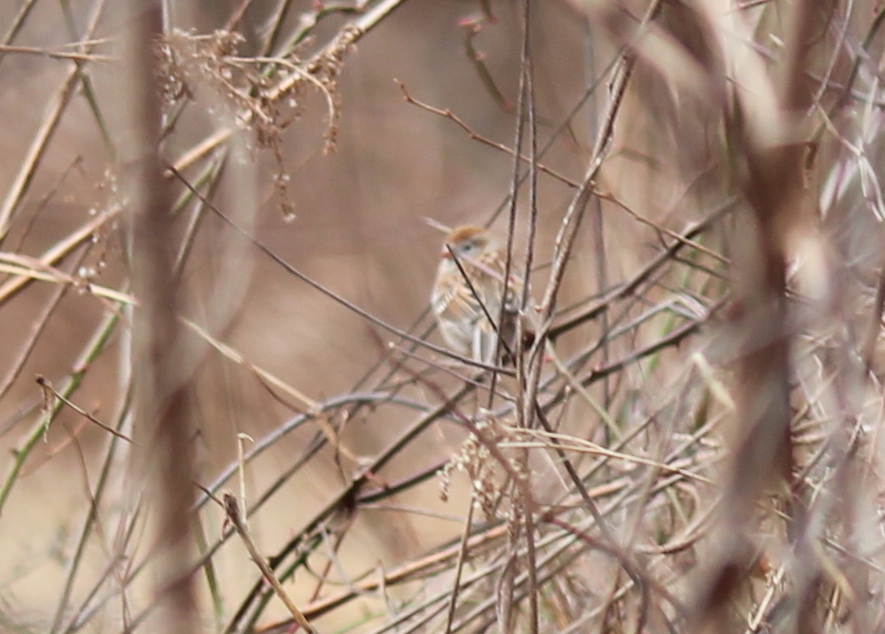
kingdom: Animalia
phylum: Chordata
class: Aves
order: Passeriformes
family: Passerellidae
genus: Spizella
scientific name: Spizella pusilla
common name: Field sparrow
